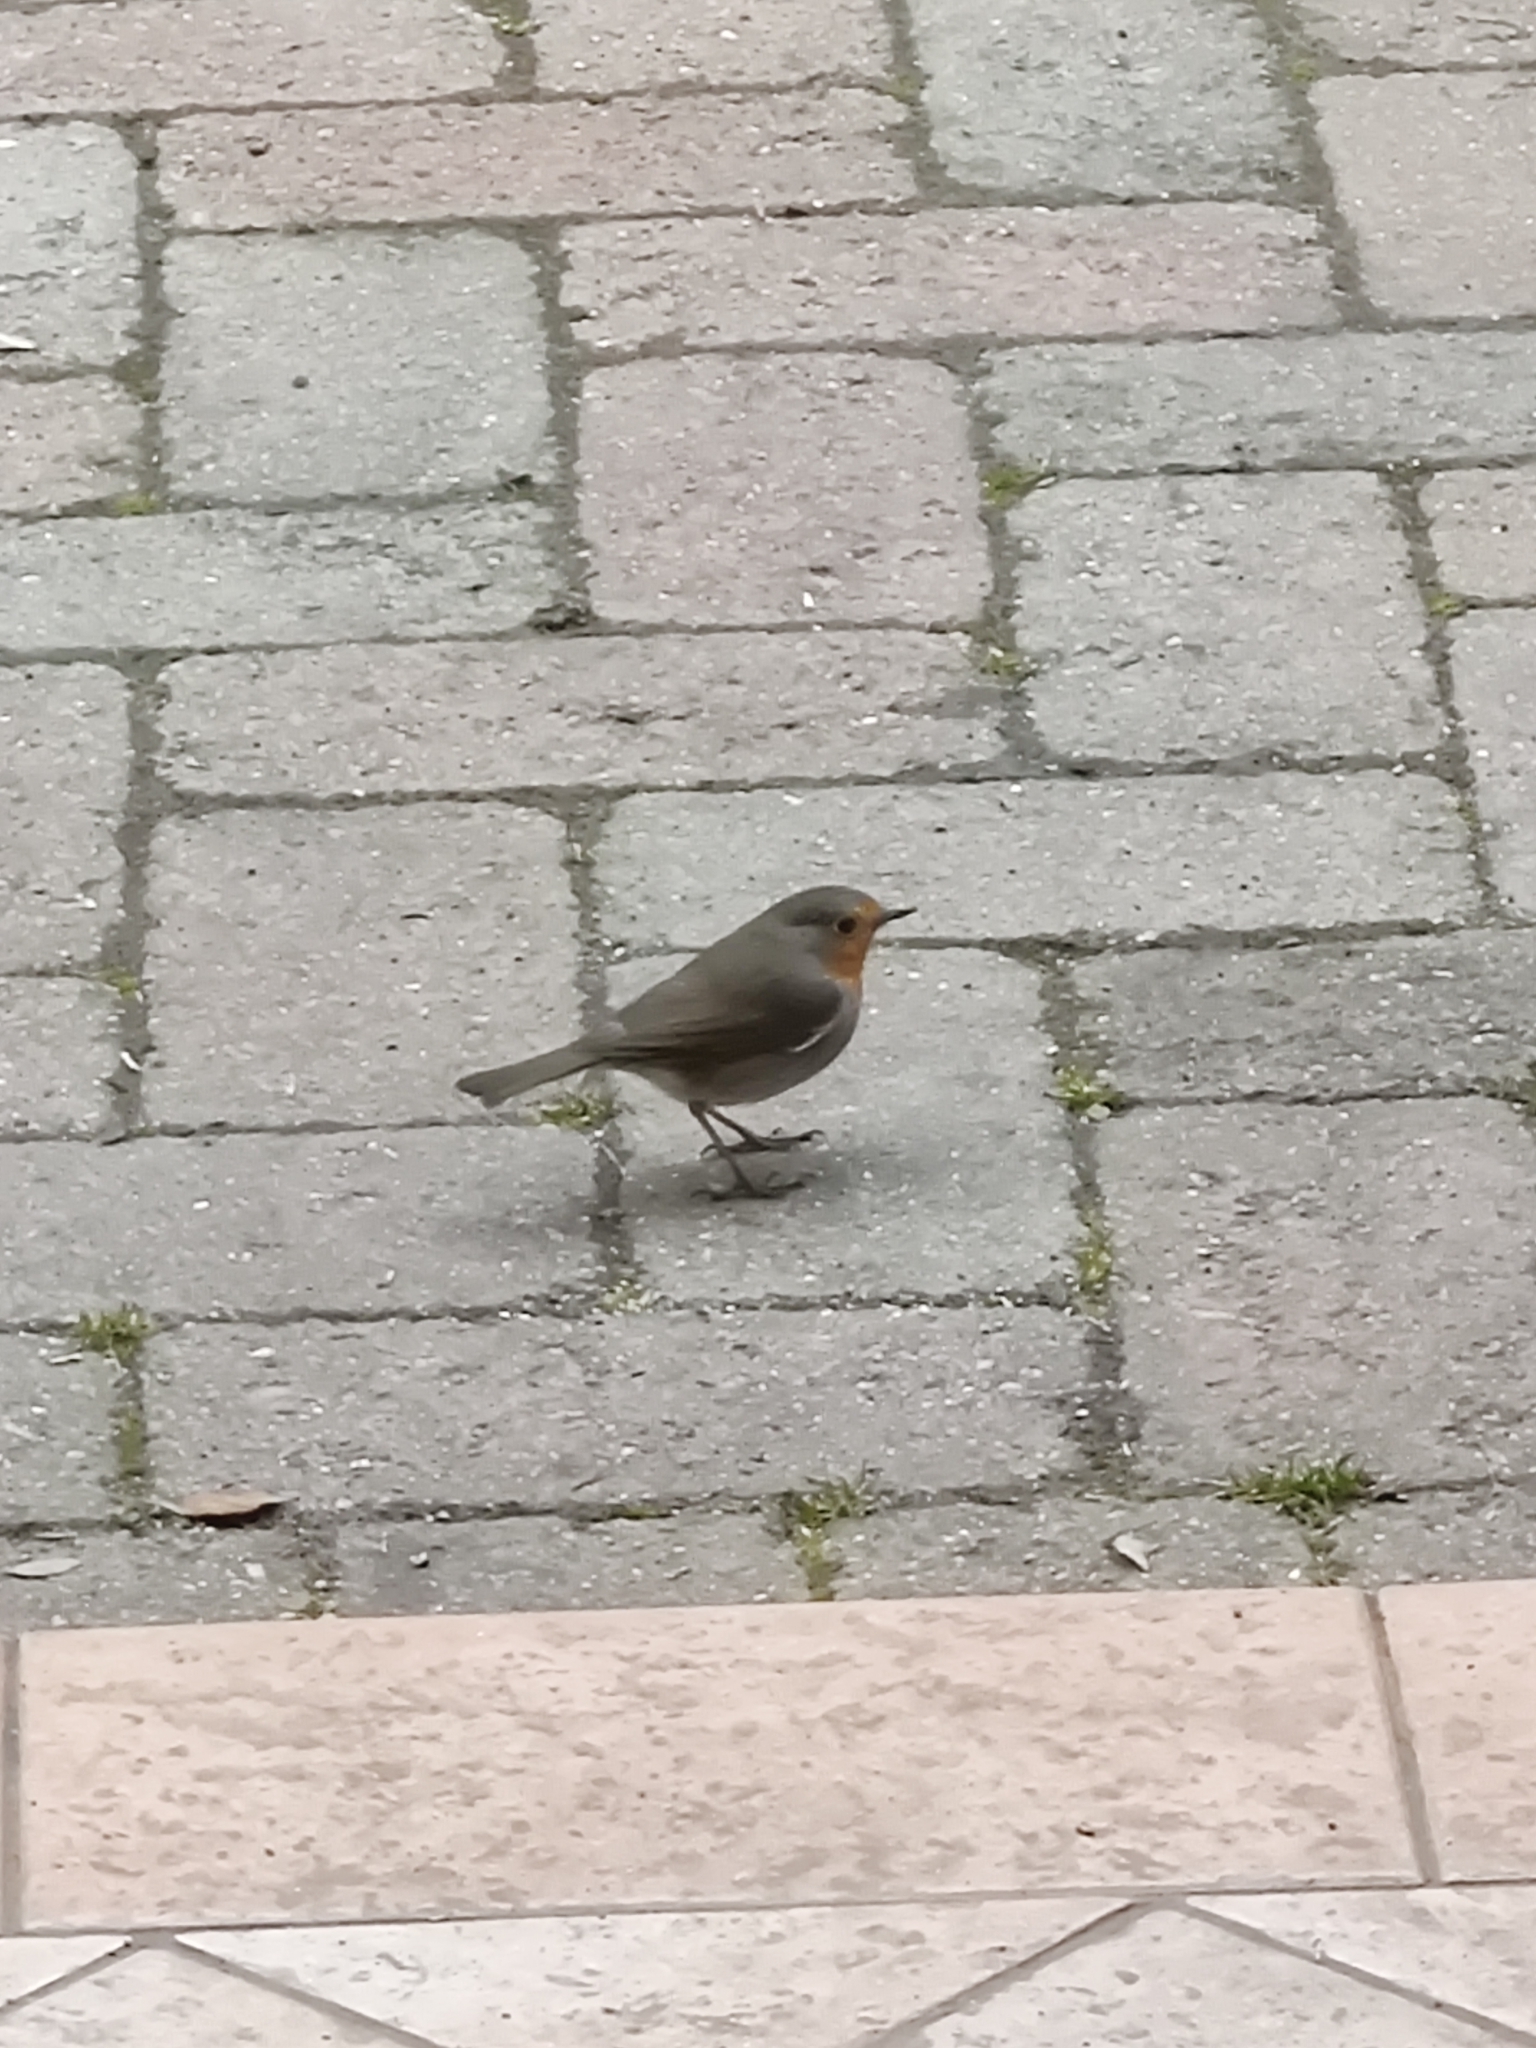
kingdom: Animalia
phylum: Chordata
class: Aves
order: Passeriformes
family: Muscicapidae
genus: Erithacus
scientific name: Erithacus rubecula
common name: European robin
